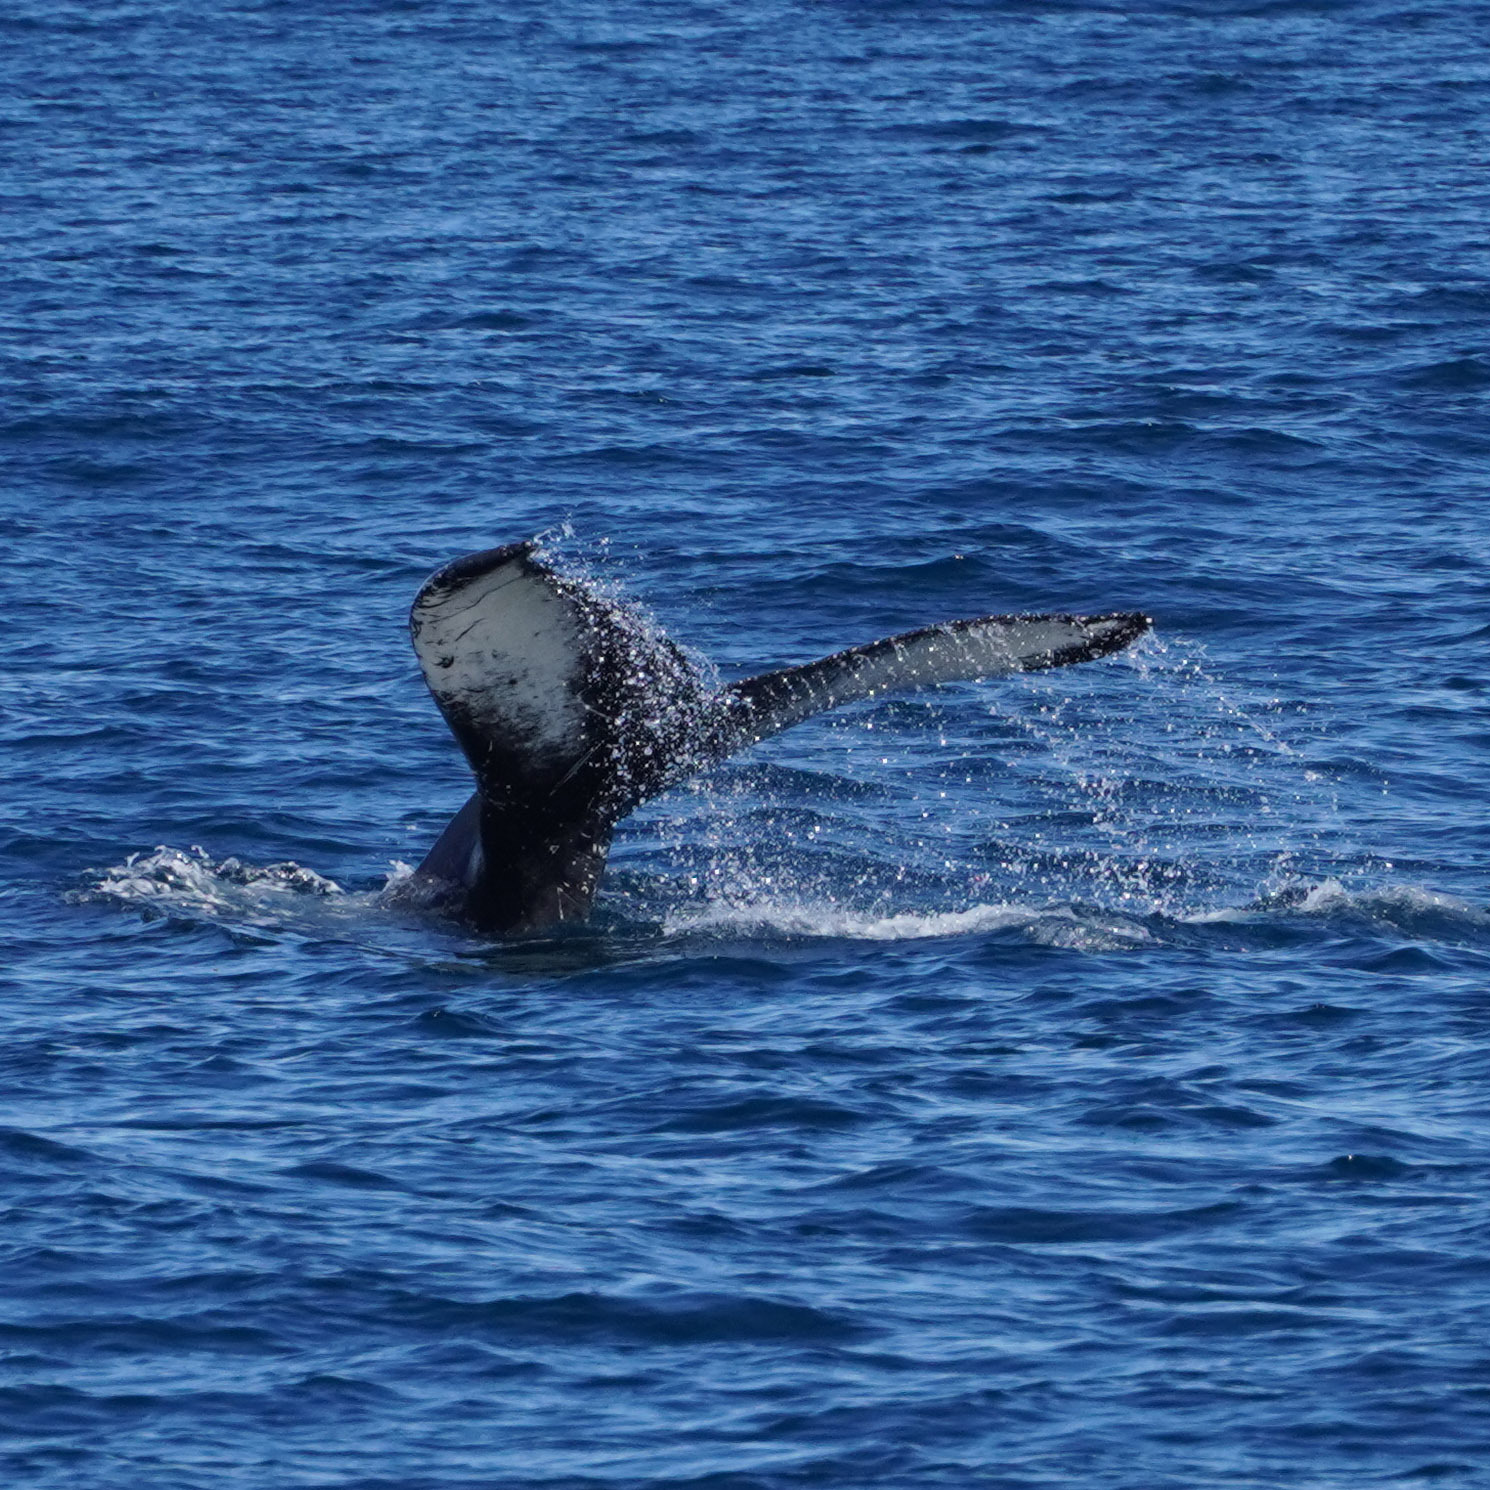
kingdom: Animalia
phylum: Chordata
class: Mammalia
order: Cetacea
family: Balaenopteridae
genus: Megaptera
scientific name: Megaptera novaeangliae
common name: Humpback whale
